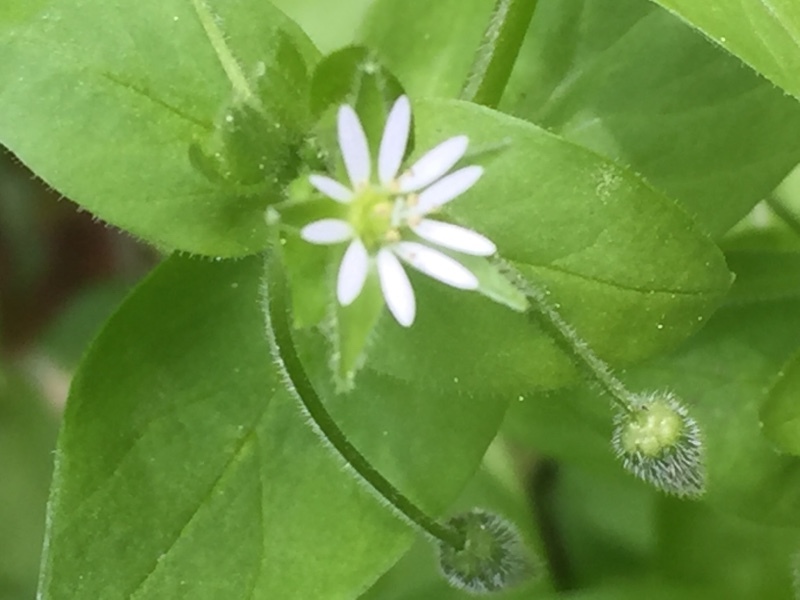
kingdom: Plantae
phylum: Tracheophyta
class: Magnoliopsida
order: Caryophyllales
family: Caryophyllaceae
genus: Stellaria
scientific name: Stellaria aquatica
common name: Water chickweed
